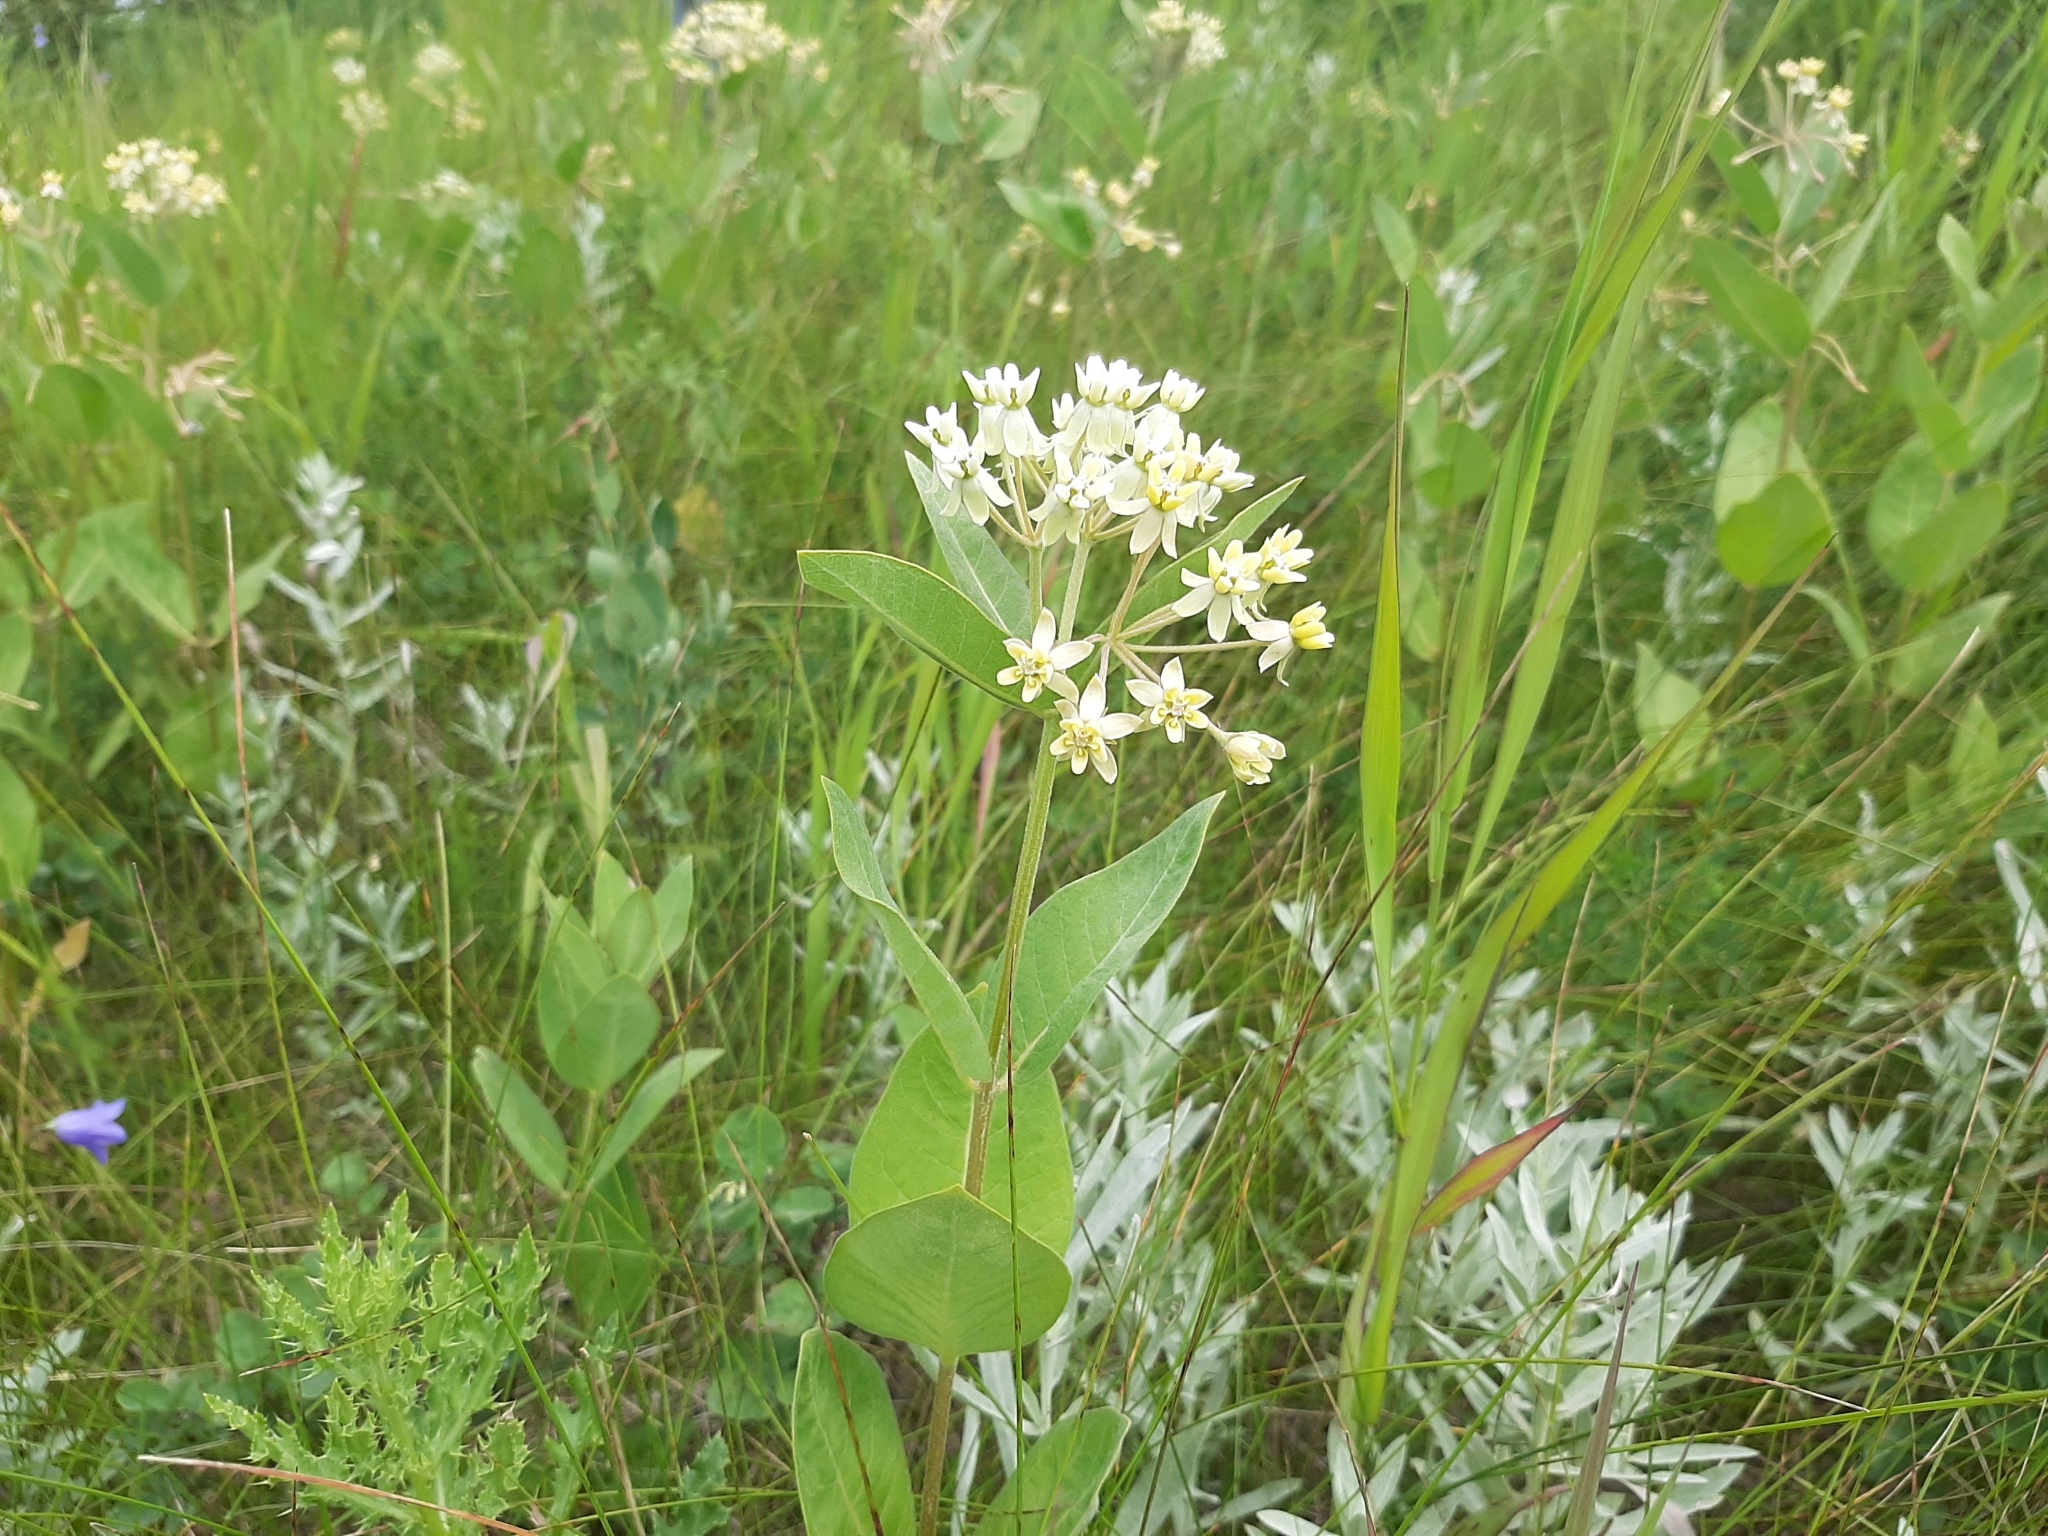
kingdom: Plantae
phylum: Tracheophyta
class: Magnoliopsida
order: Gentianales
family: Apocynaceae
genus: Asclepias
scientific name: Asclepias ovalifolia
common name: Dwarf milkweed
